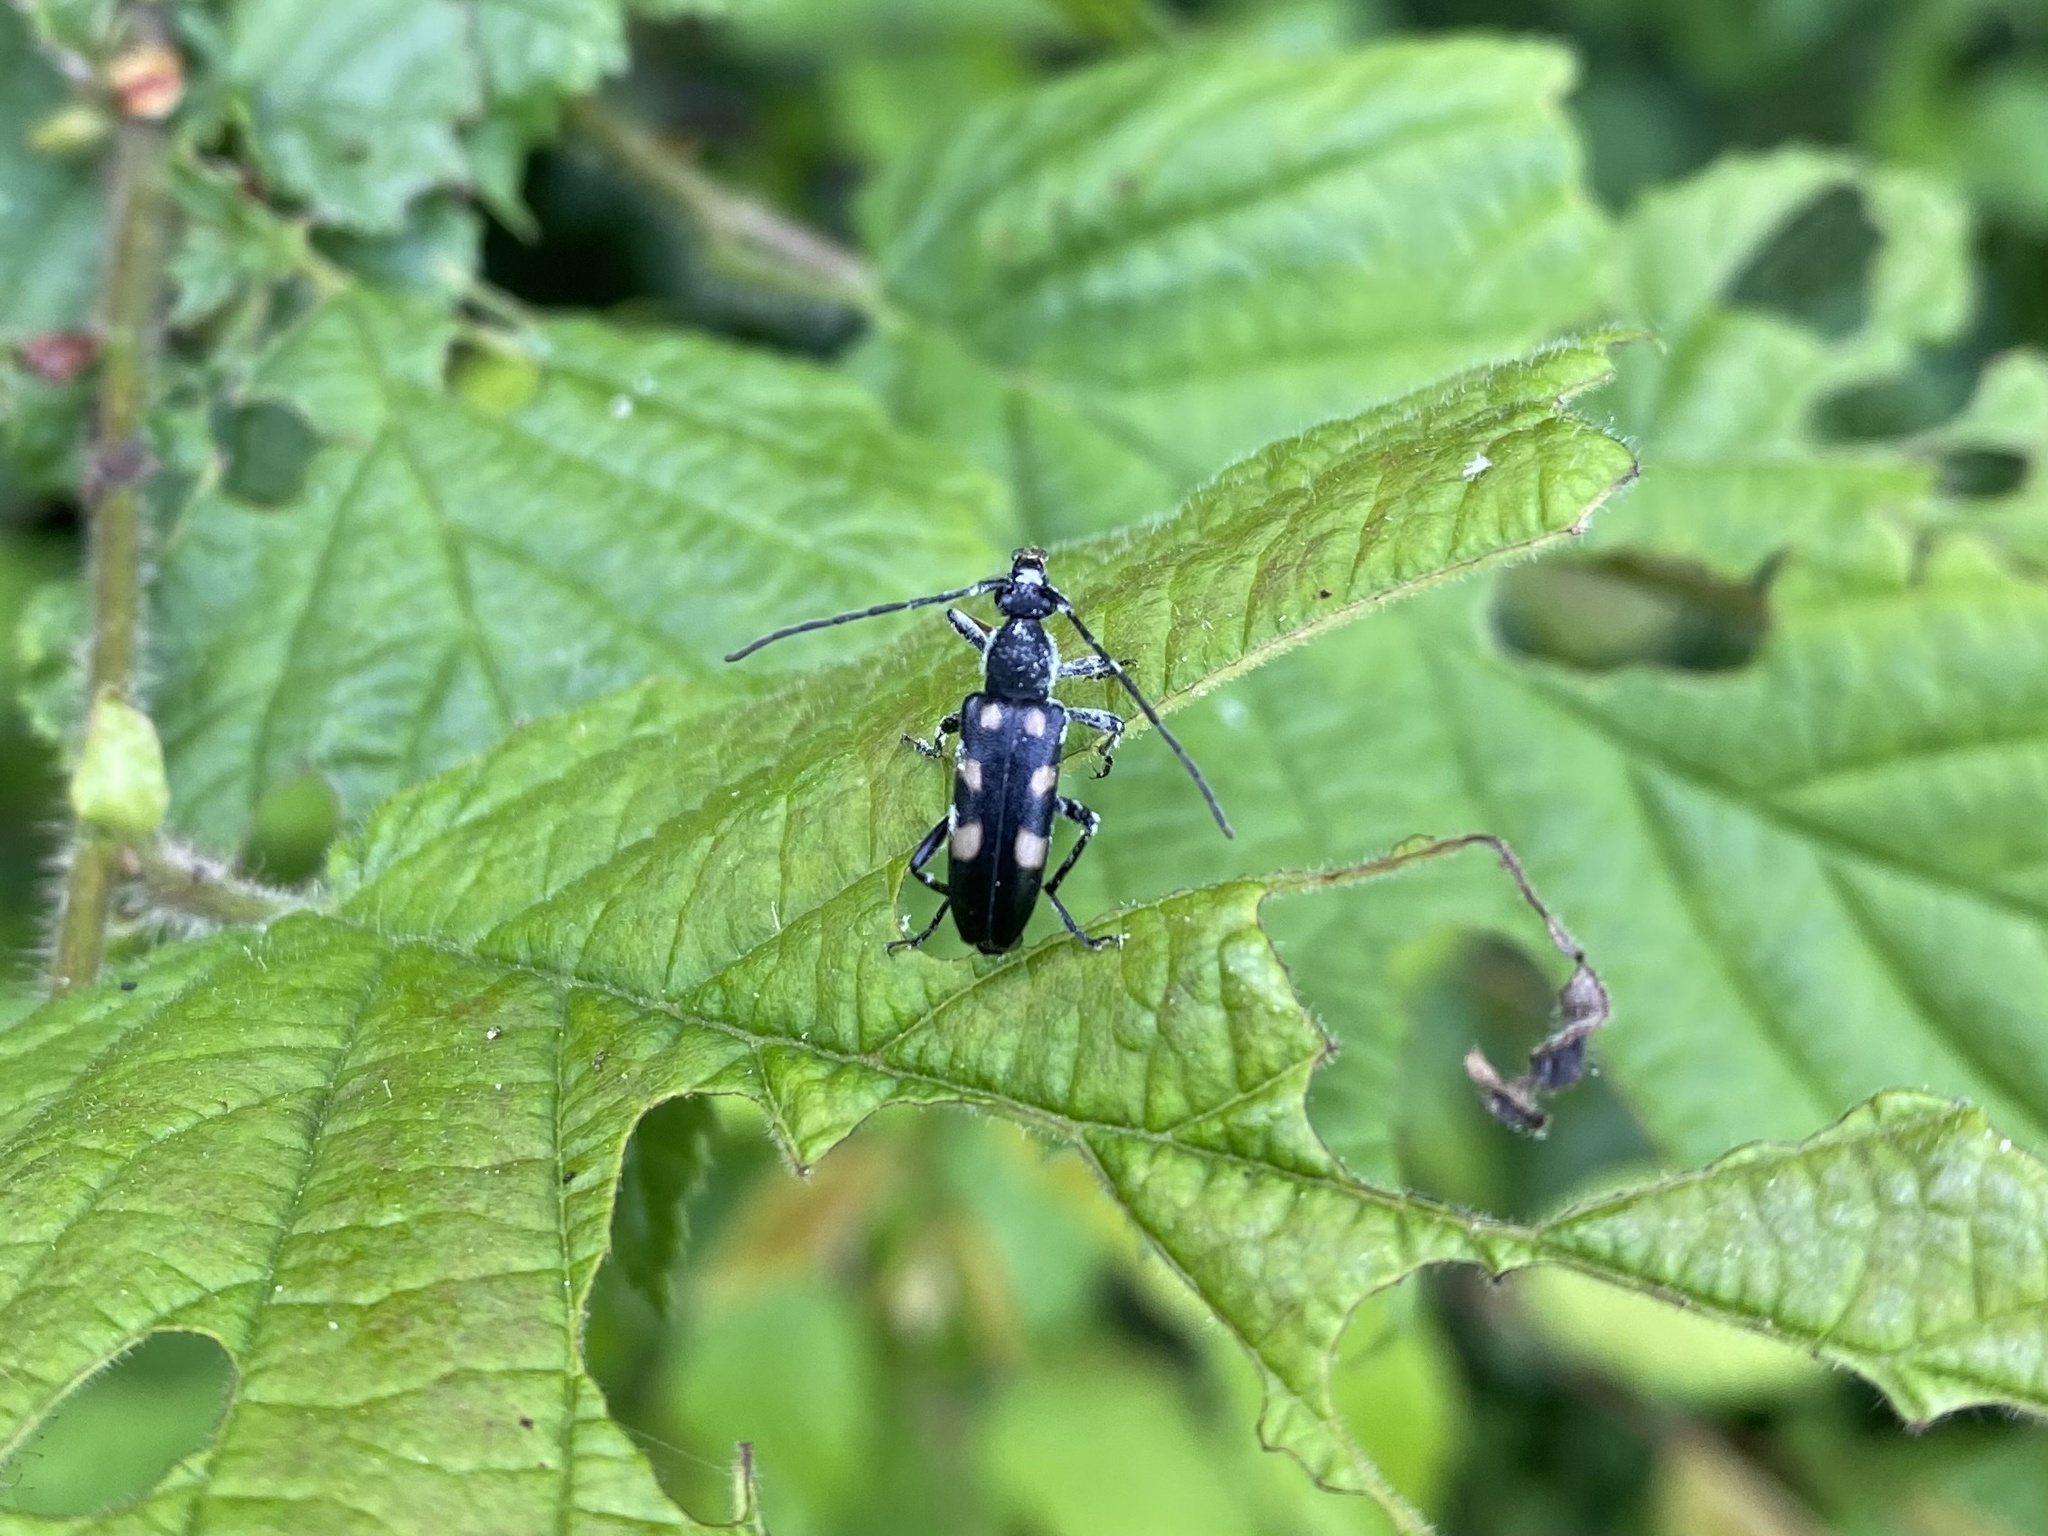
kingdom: Animalia
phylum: Arthropoda
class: Insecta
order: Coleoptera
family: Cerambycidae
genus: Anoplodera
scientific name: Anoplodera sexguttata
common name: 6 spotted longhorn
